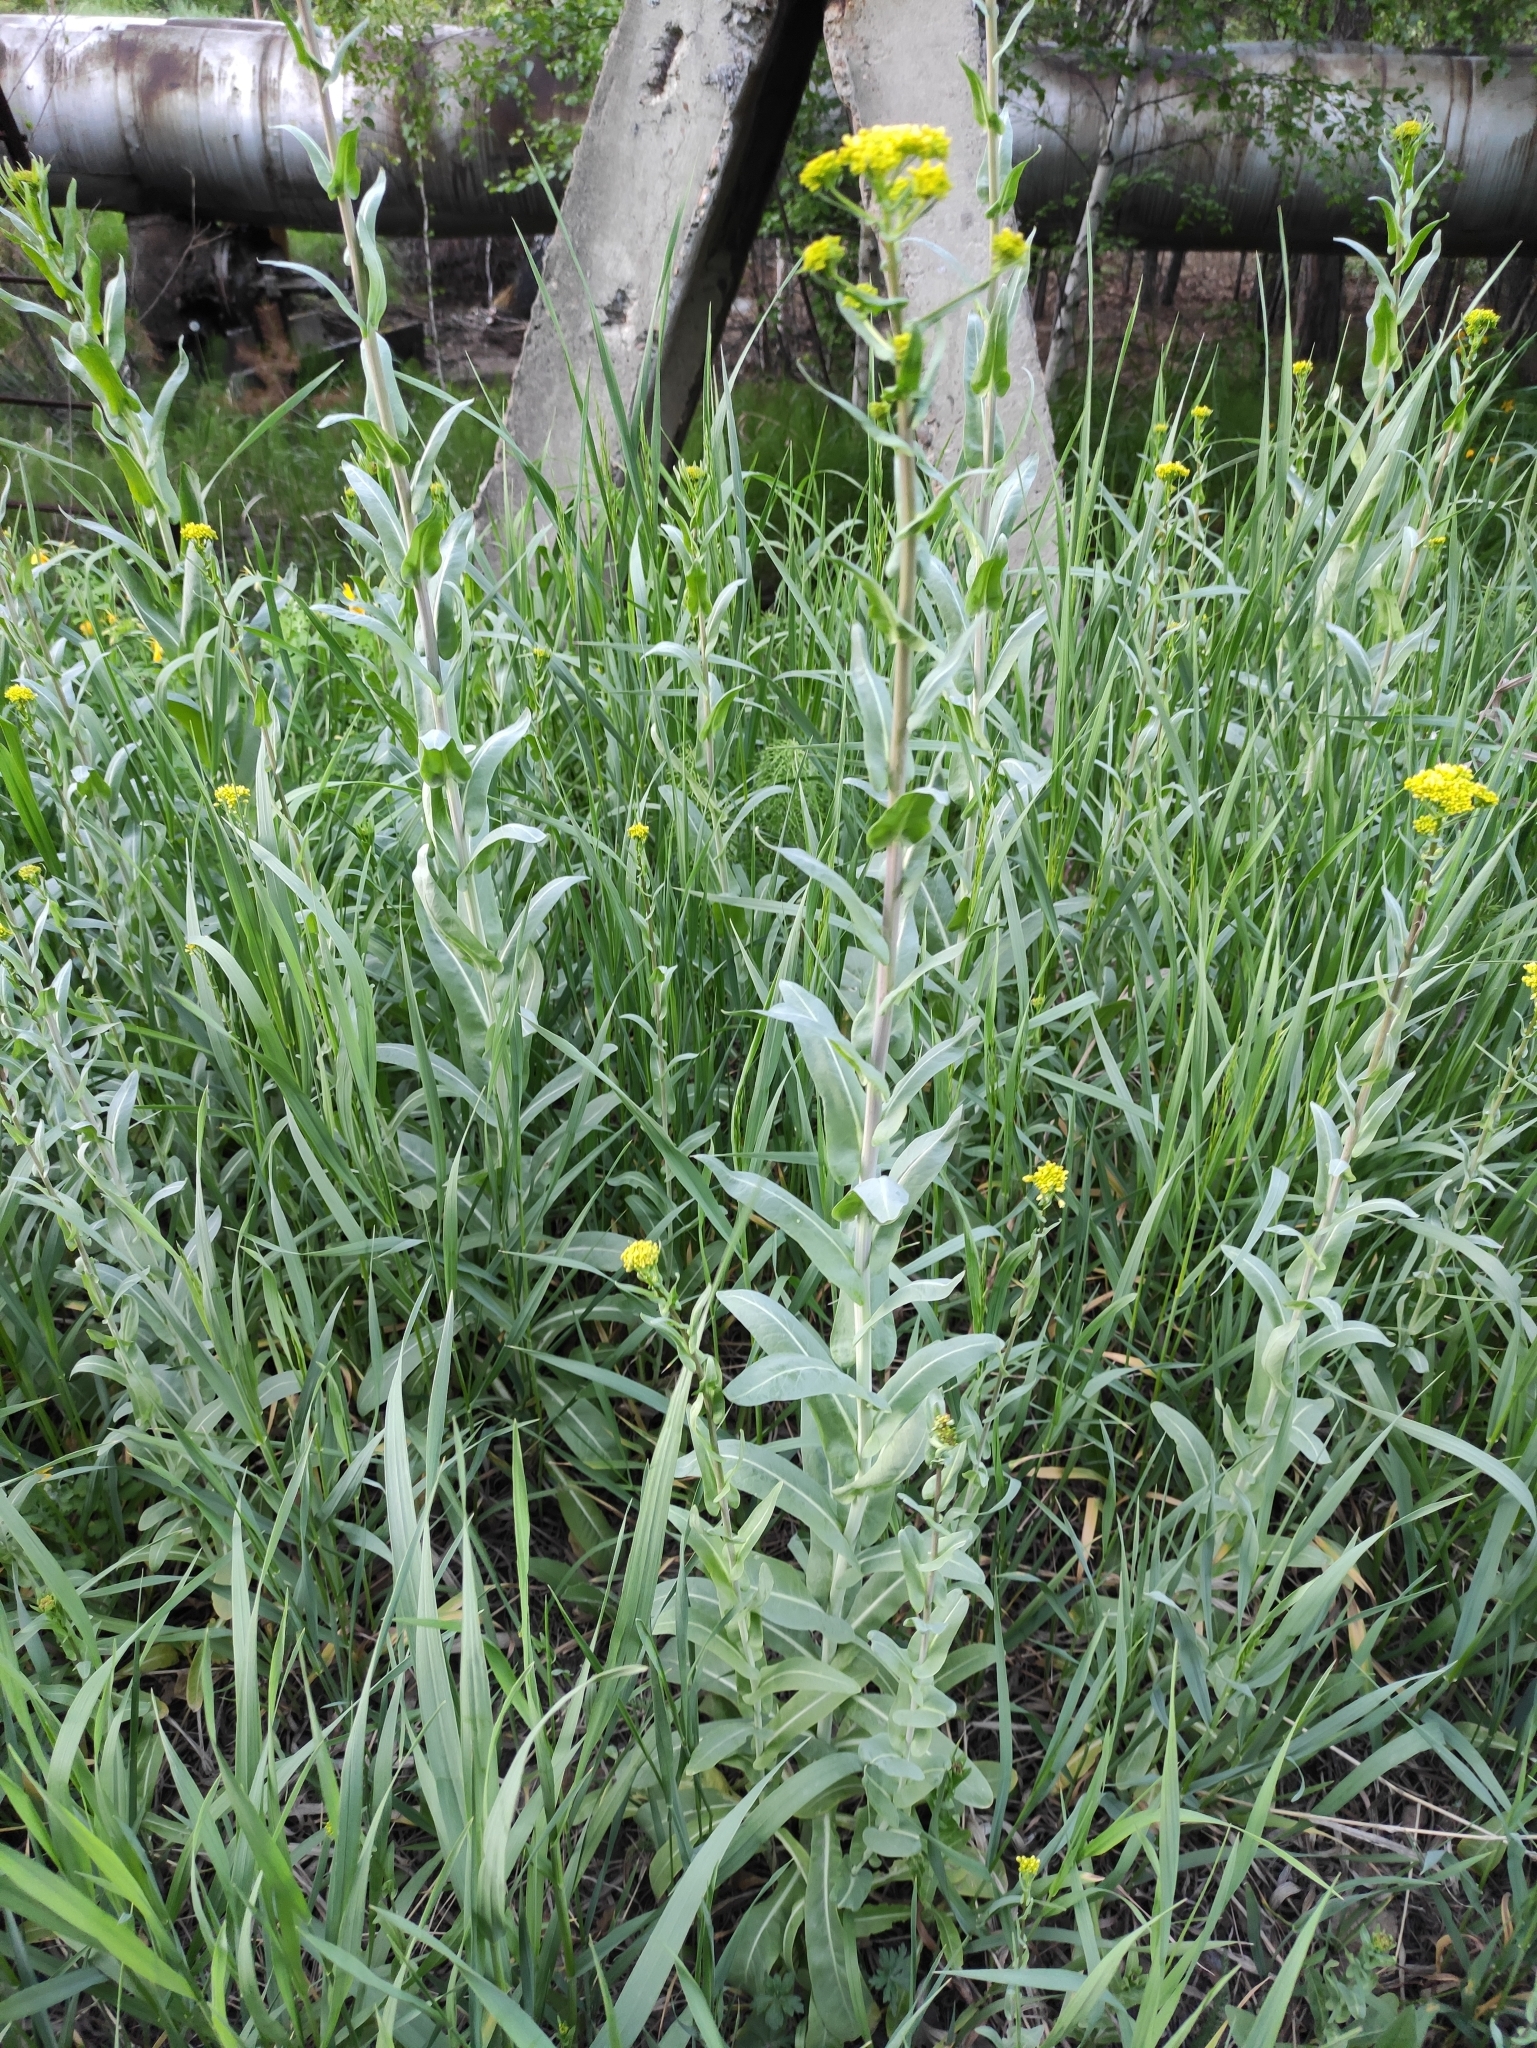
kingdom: Plantae
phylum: Tracheophyta
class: Magnoliopsida
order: Brassicales
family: Brassicaceae
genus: Isatis
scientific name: Isatis tinctoria
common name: Woad
